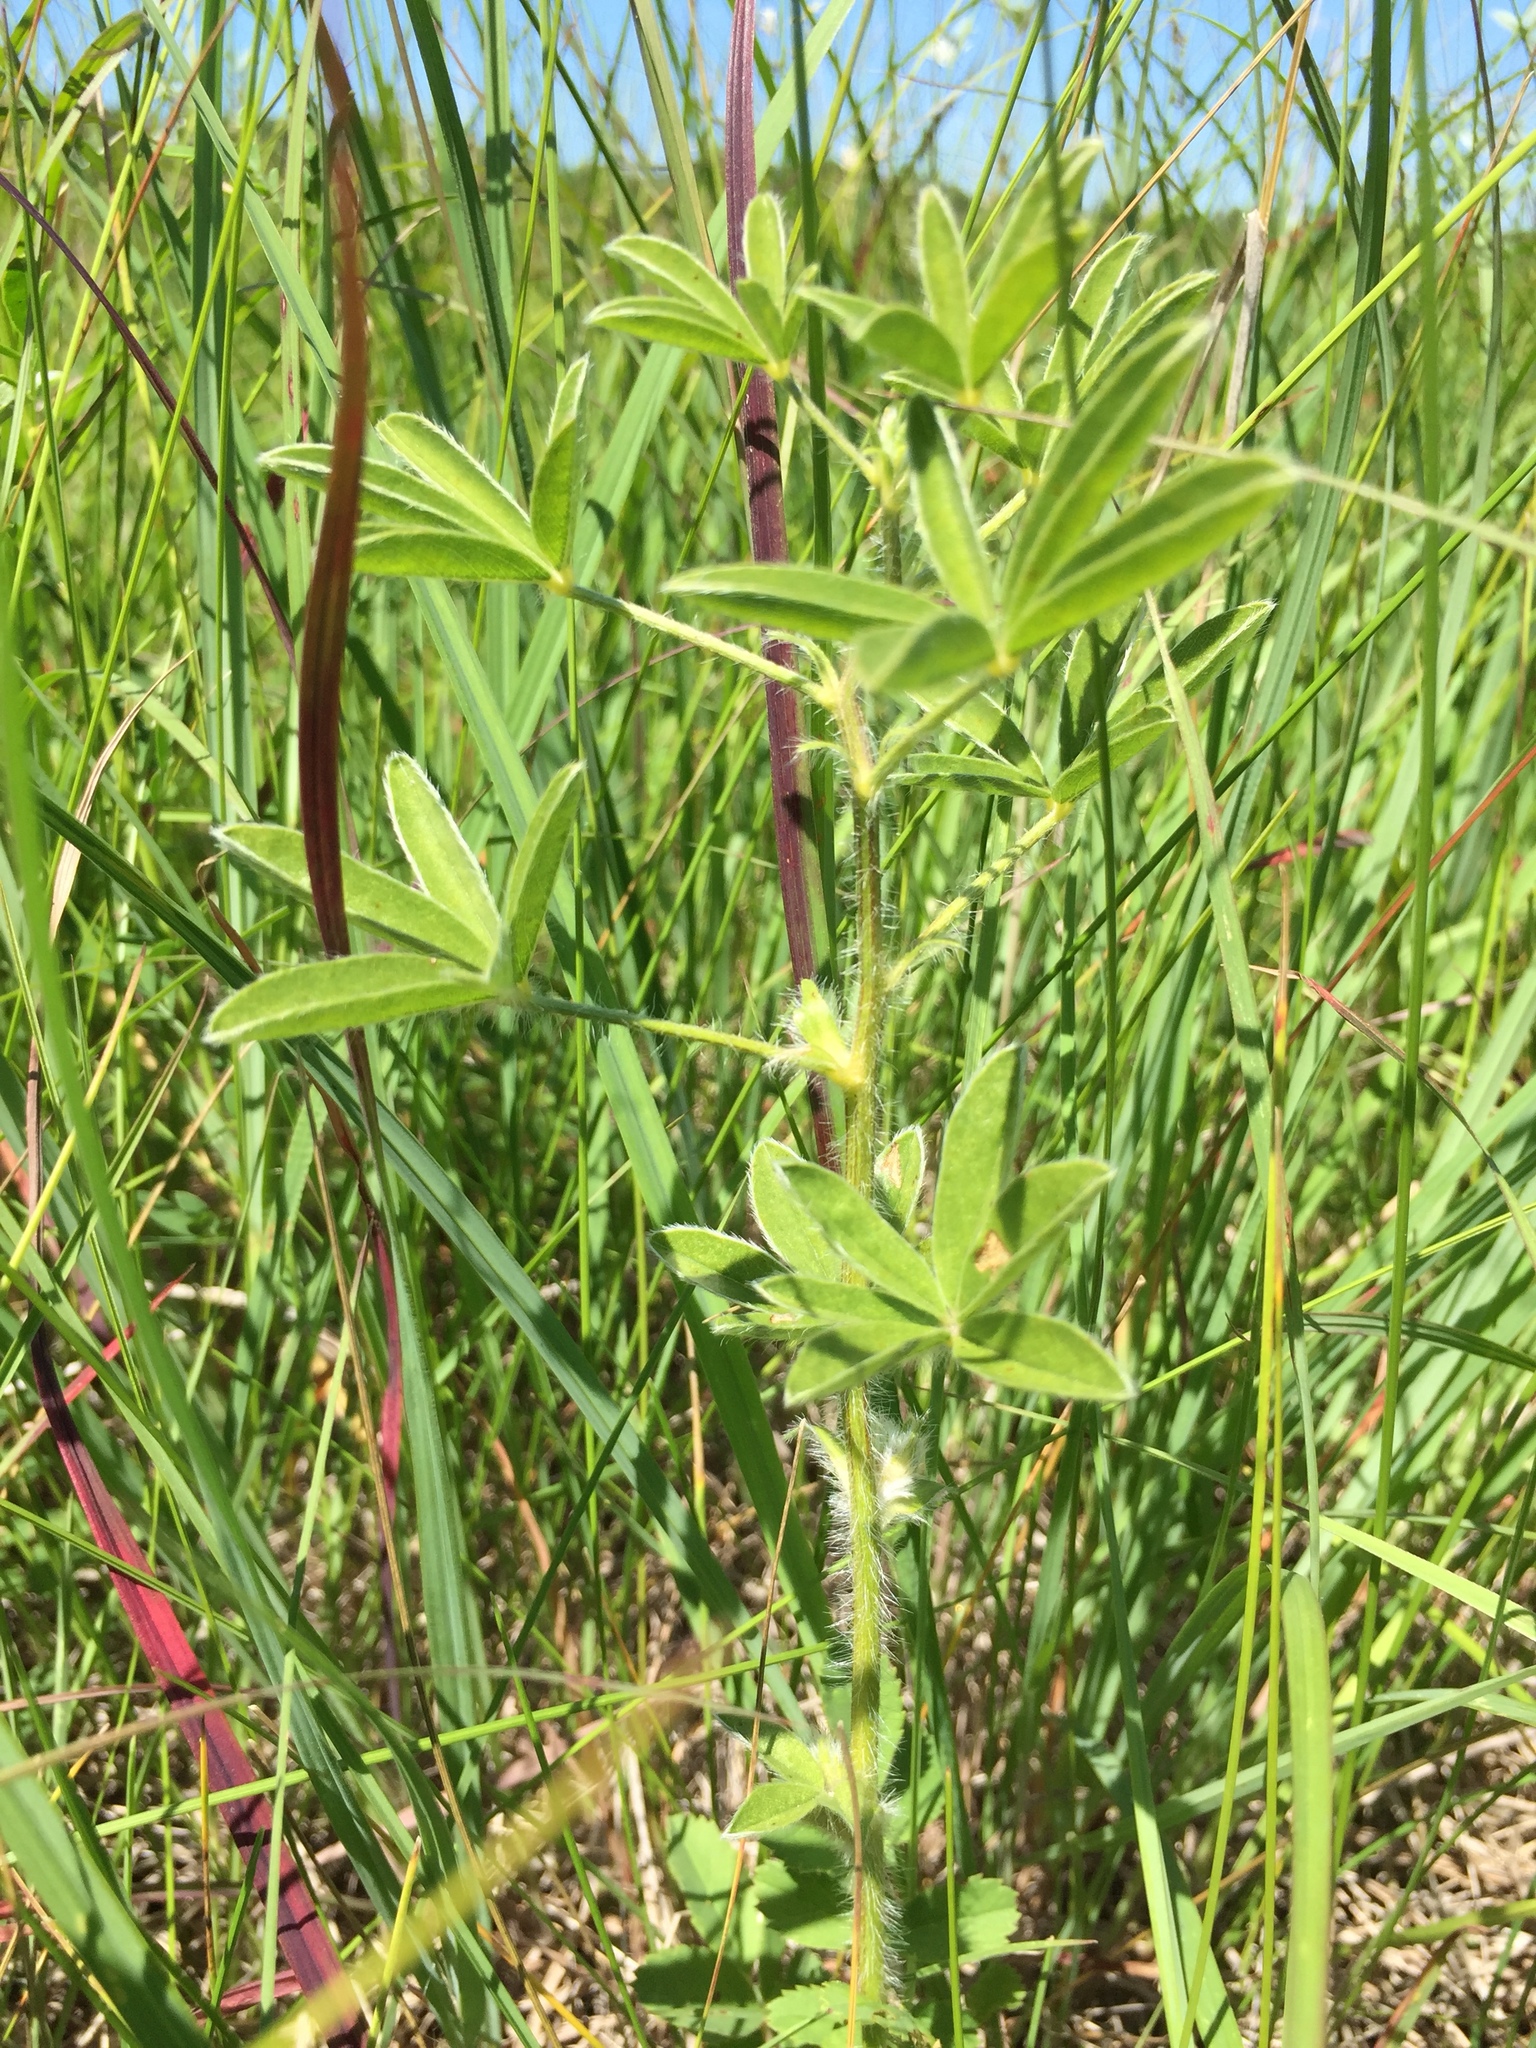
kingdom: Plantae
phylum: Tracheophyta
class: Magnoliopsida
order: Fabales
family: Fabaceae
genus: Pediomelum
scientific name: Pediomelum esculentum
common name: Indian-turnip
